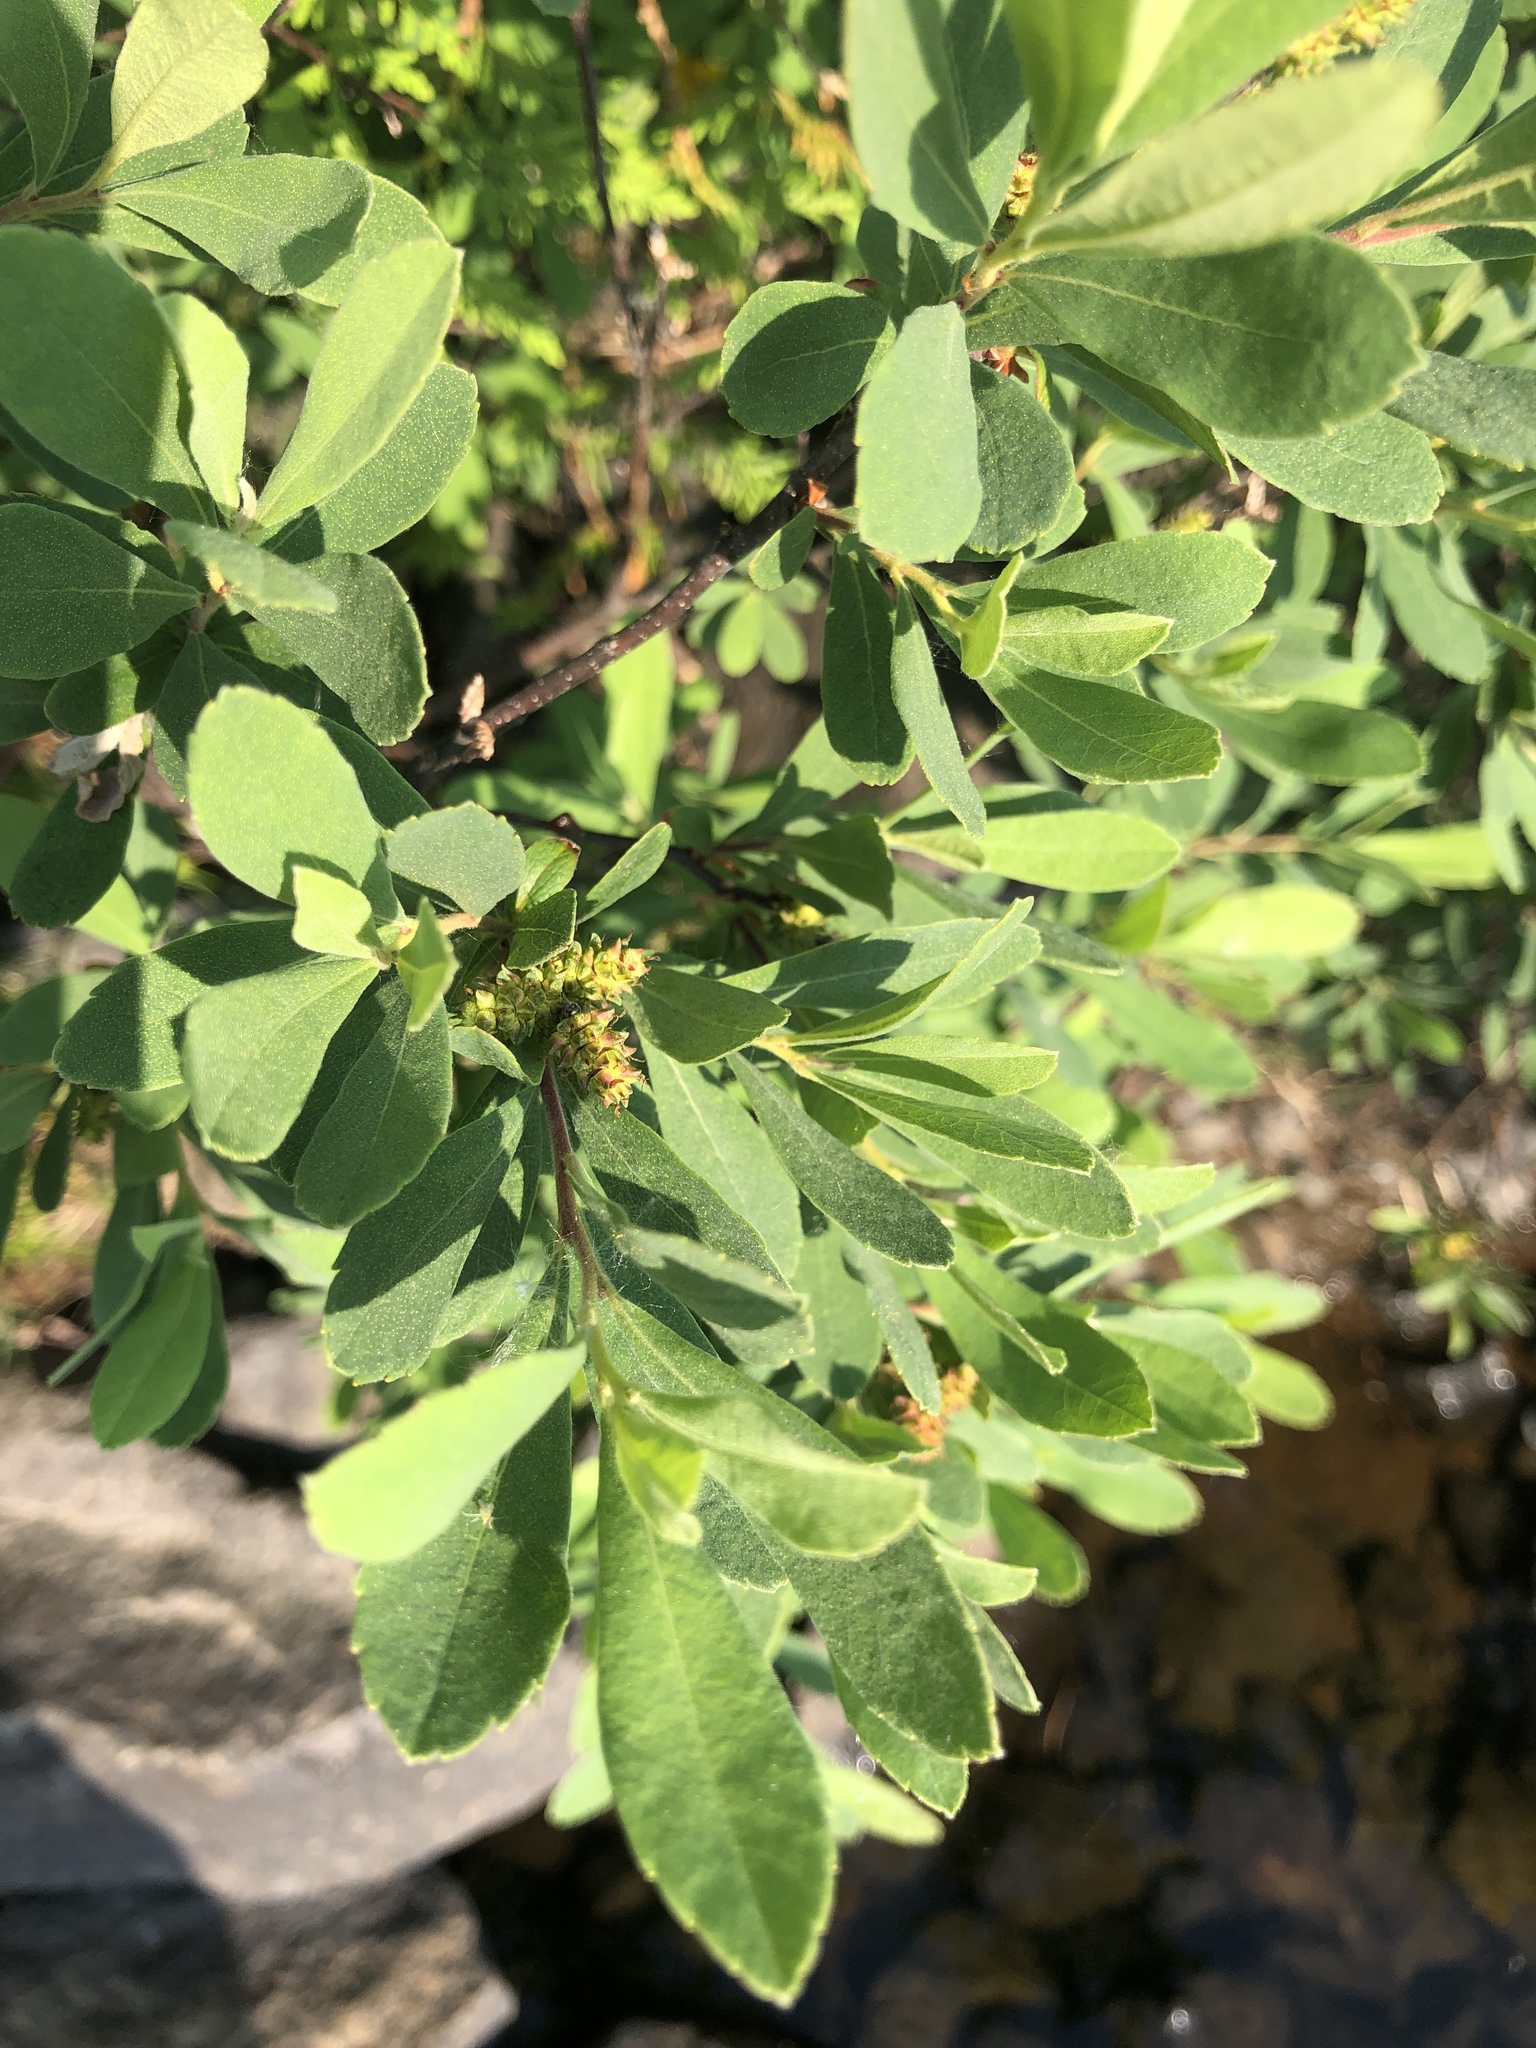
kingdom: Plantae
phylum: Tracheophyta
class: Magnoliopsida
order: Fagales
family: Myricaceae
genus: Myrica
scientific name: Myrica gale
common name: Sweet gale
